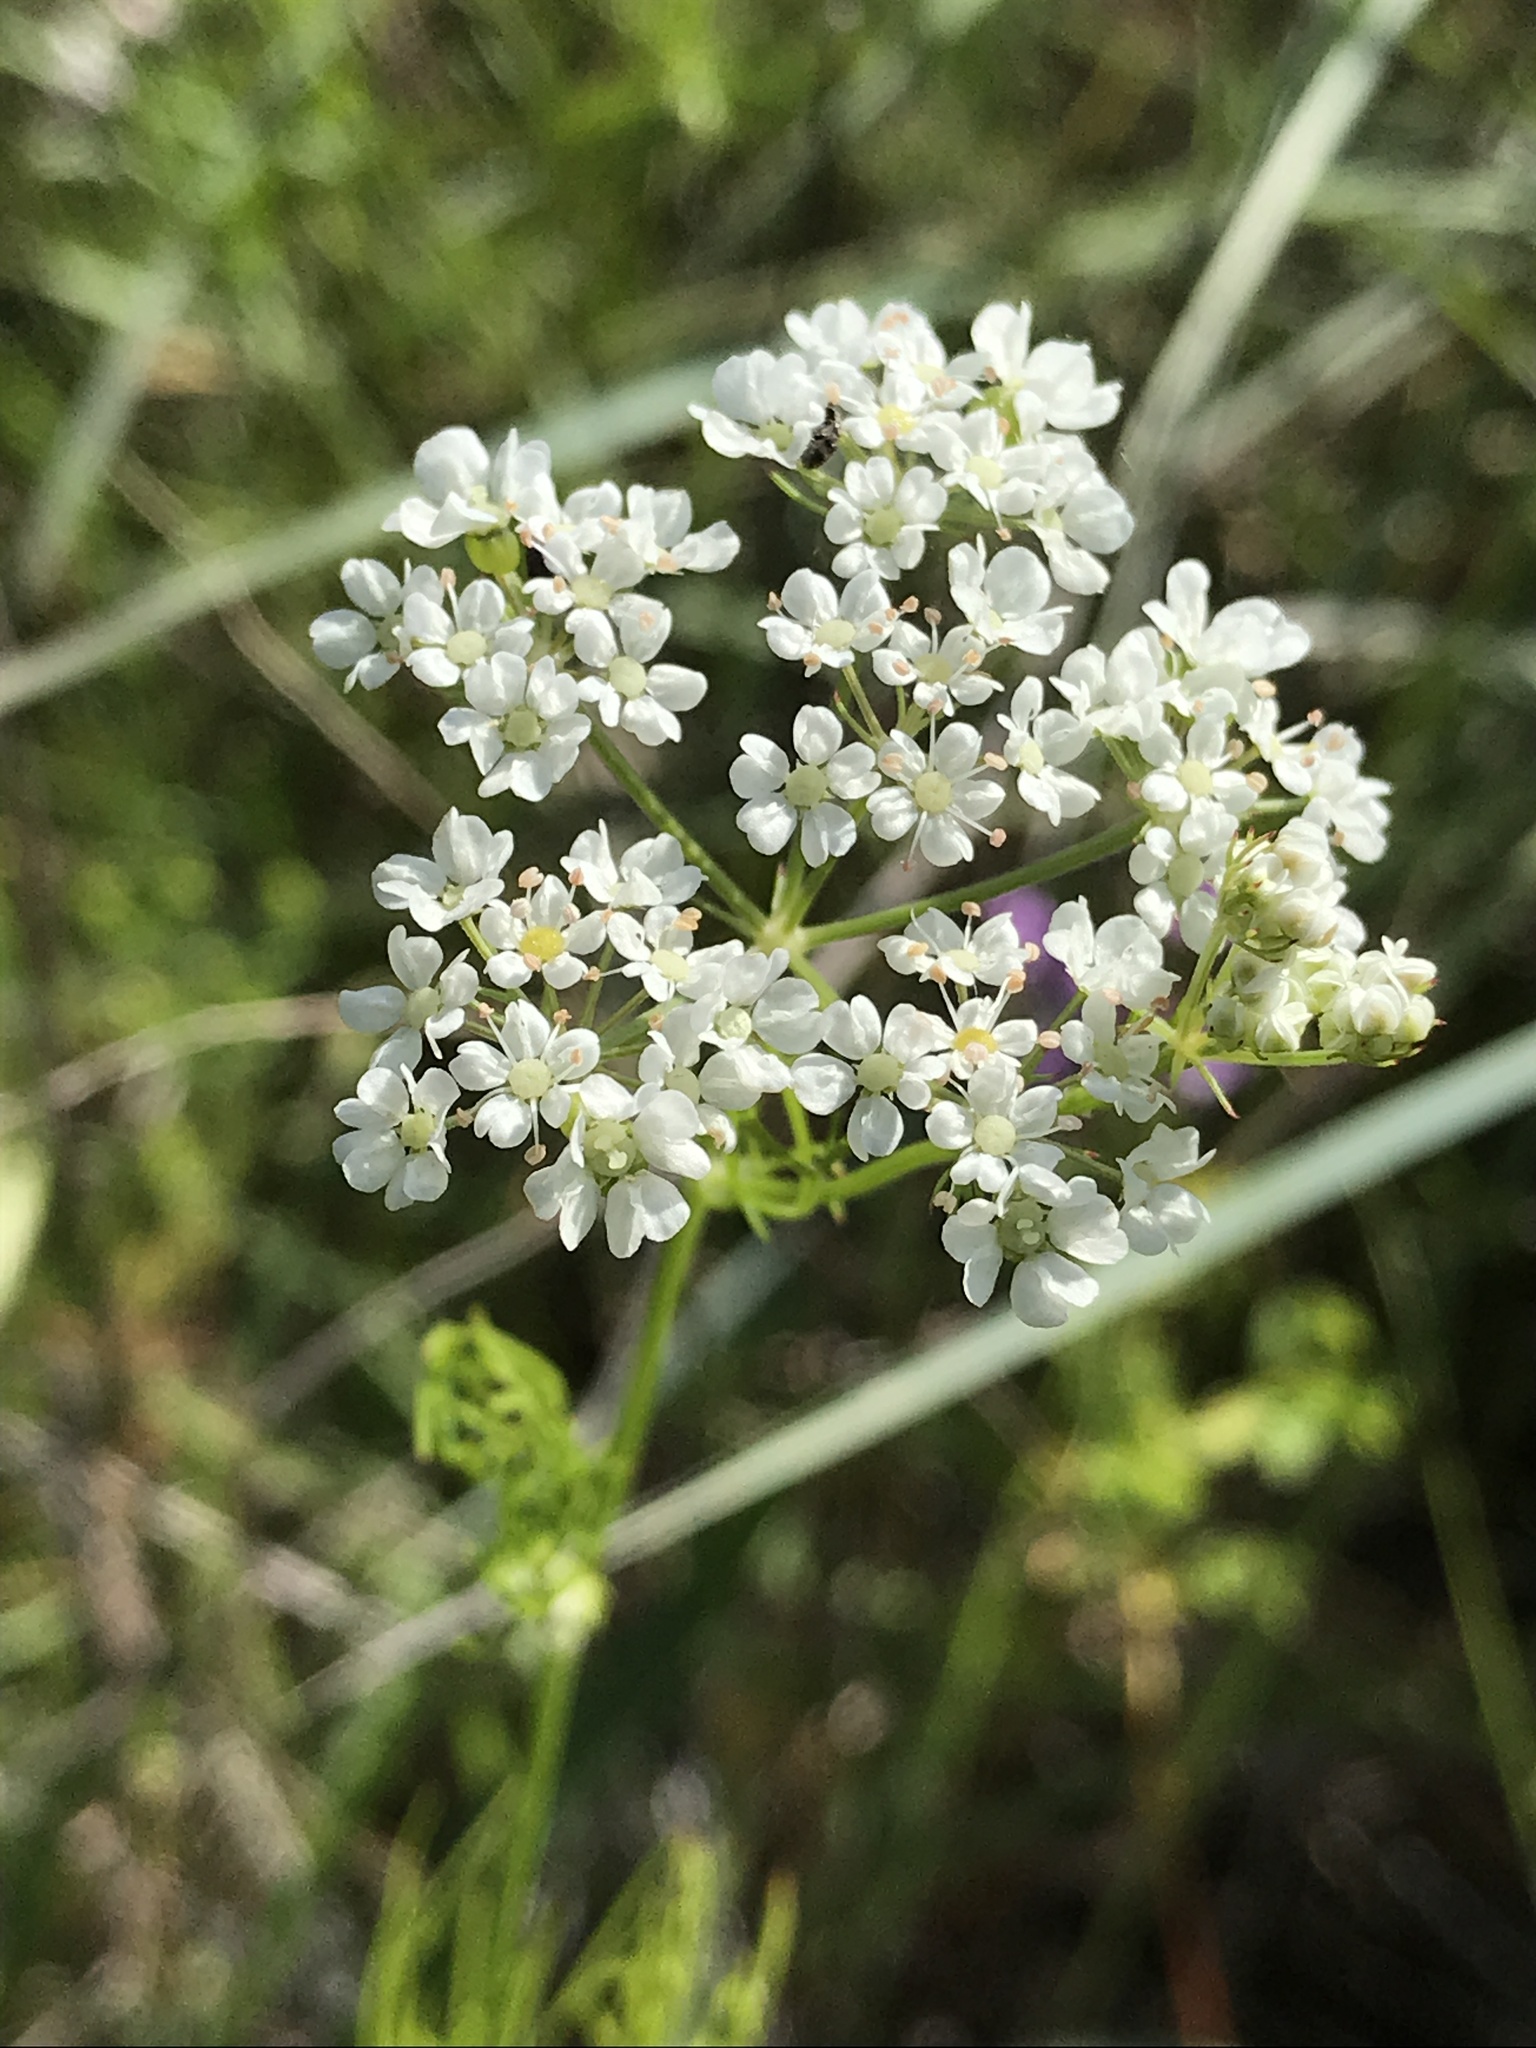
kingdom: Plantae
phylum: Tracheophyta
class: Magnoliopsida
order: Apiales
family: Apiaceae
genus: Atrema
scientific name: Atrema americanum
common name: Prairie-bishop
